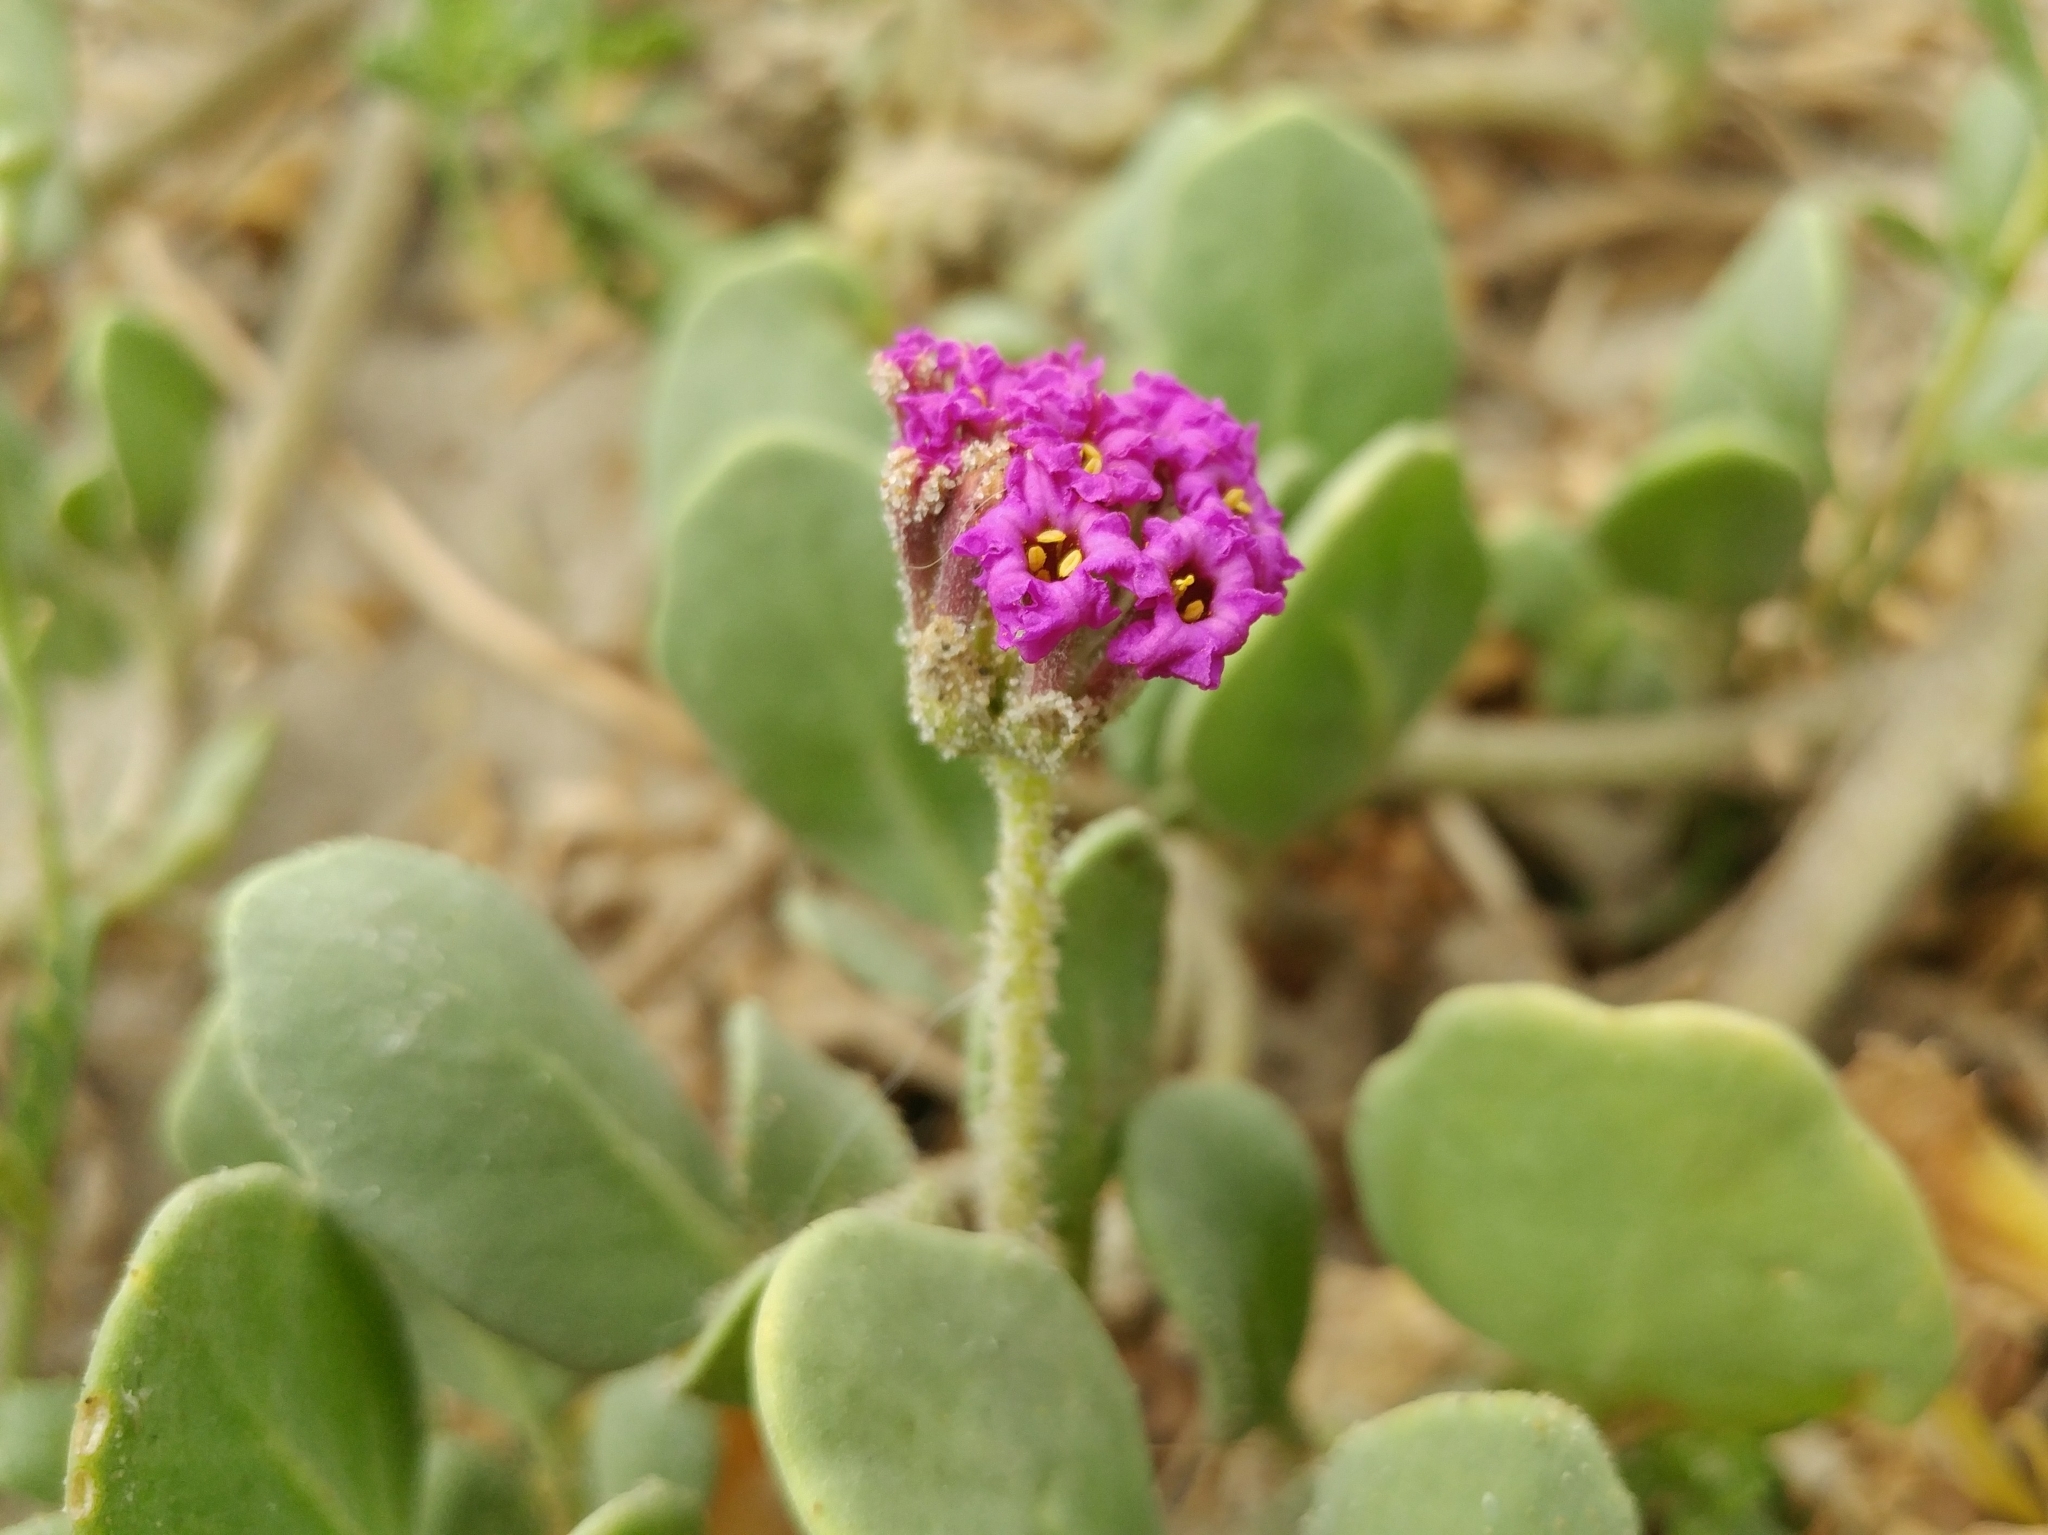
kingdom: Plantae
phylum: Tracheophyta
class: Magnoliopsida
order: Caryophyllales
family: Nyctaginaceae
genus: Abronia
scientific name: Abronia maritima
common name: Red sand-verbena
